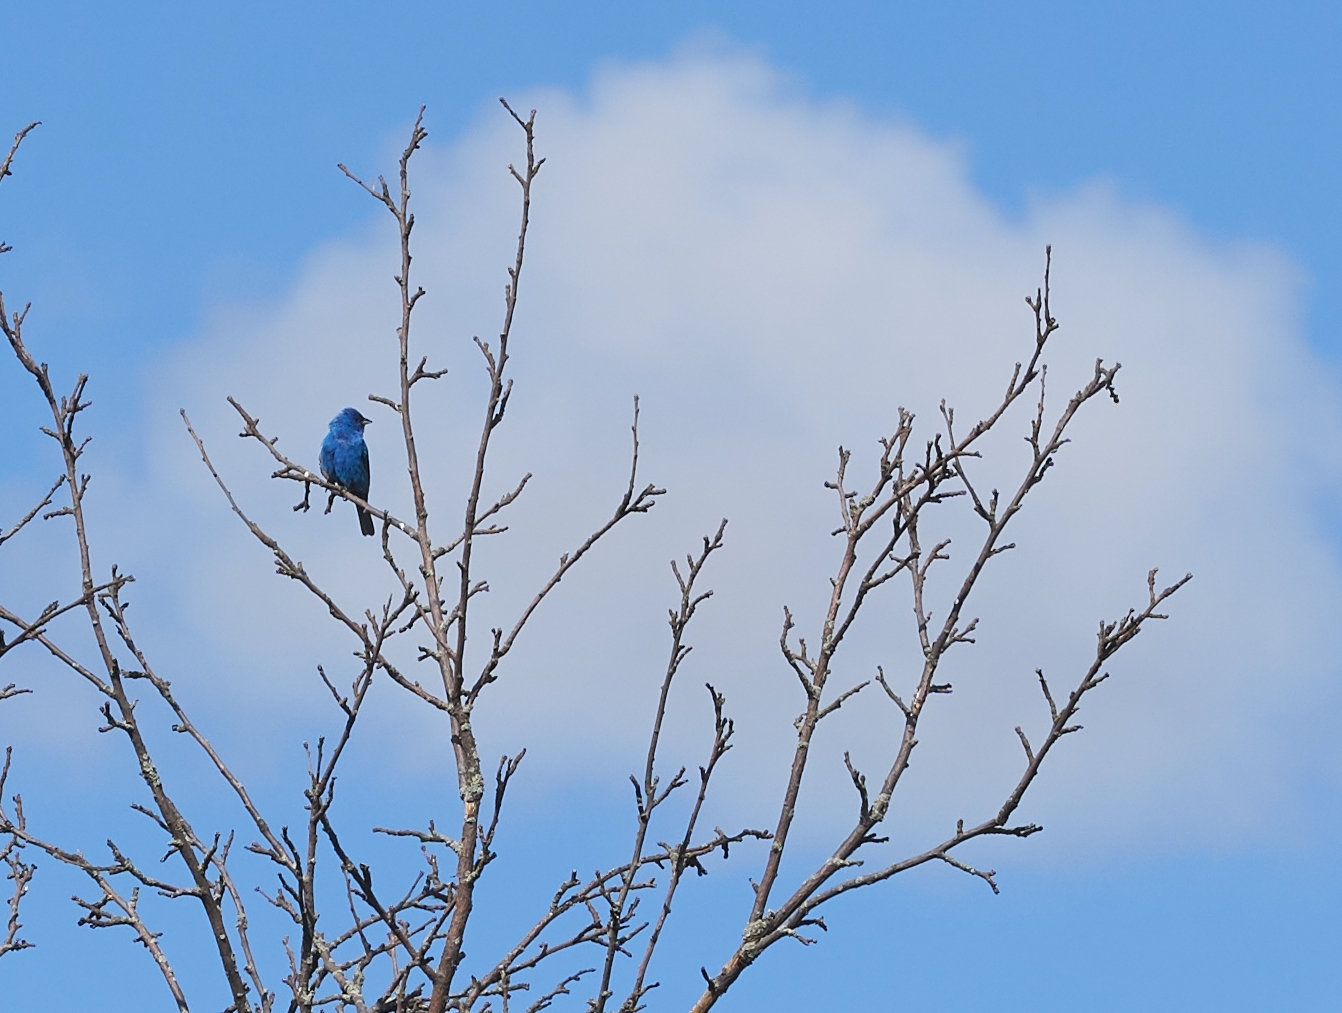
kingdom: Animalia
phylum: Chordata
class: Aves
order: Passeriformes
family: Cardinalidae
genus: Passerina
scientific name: Passerina cyanea
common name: Indigo bunting
